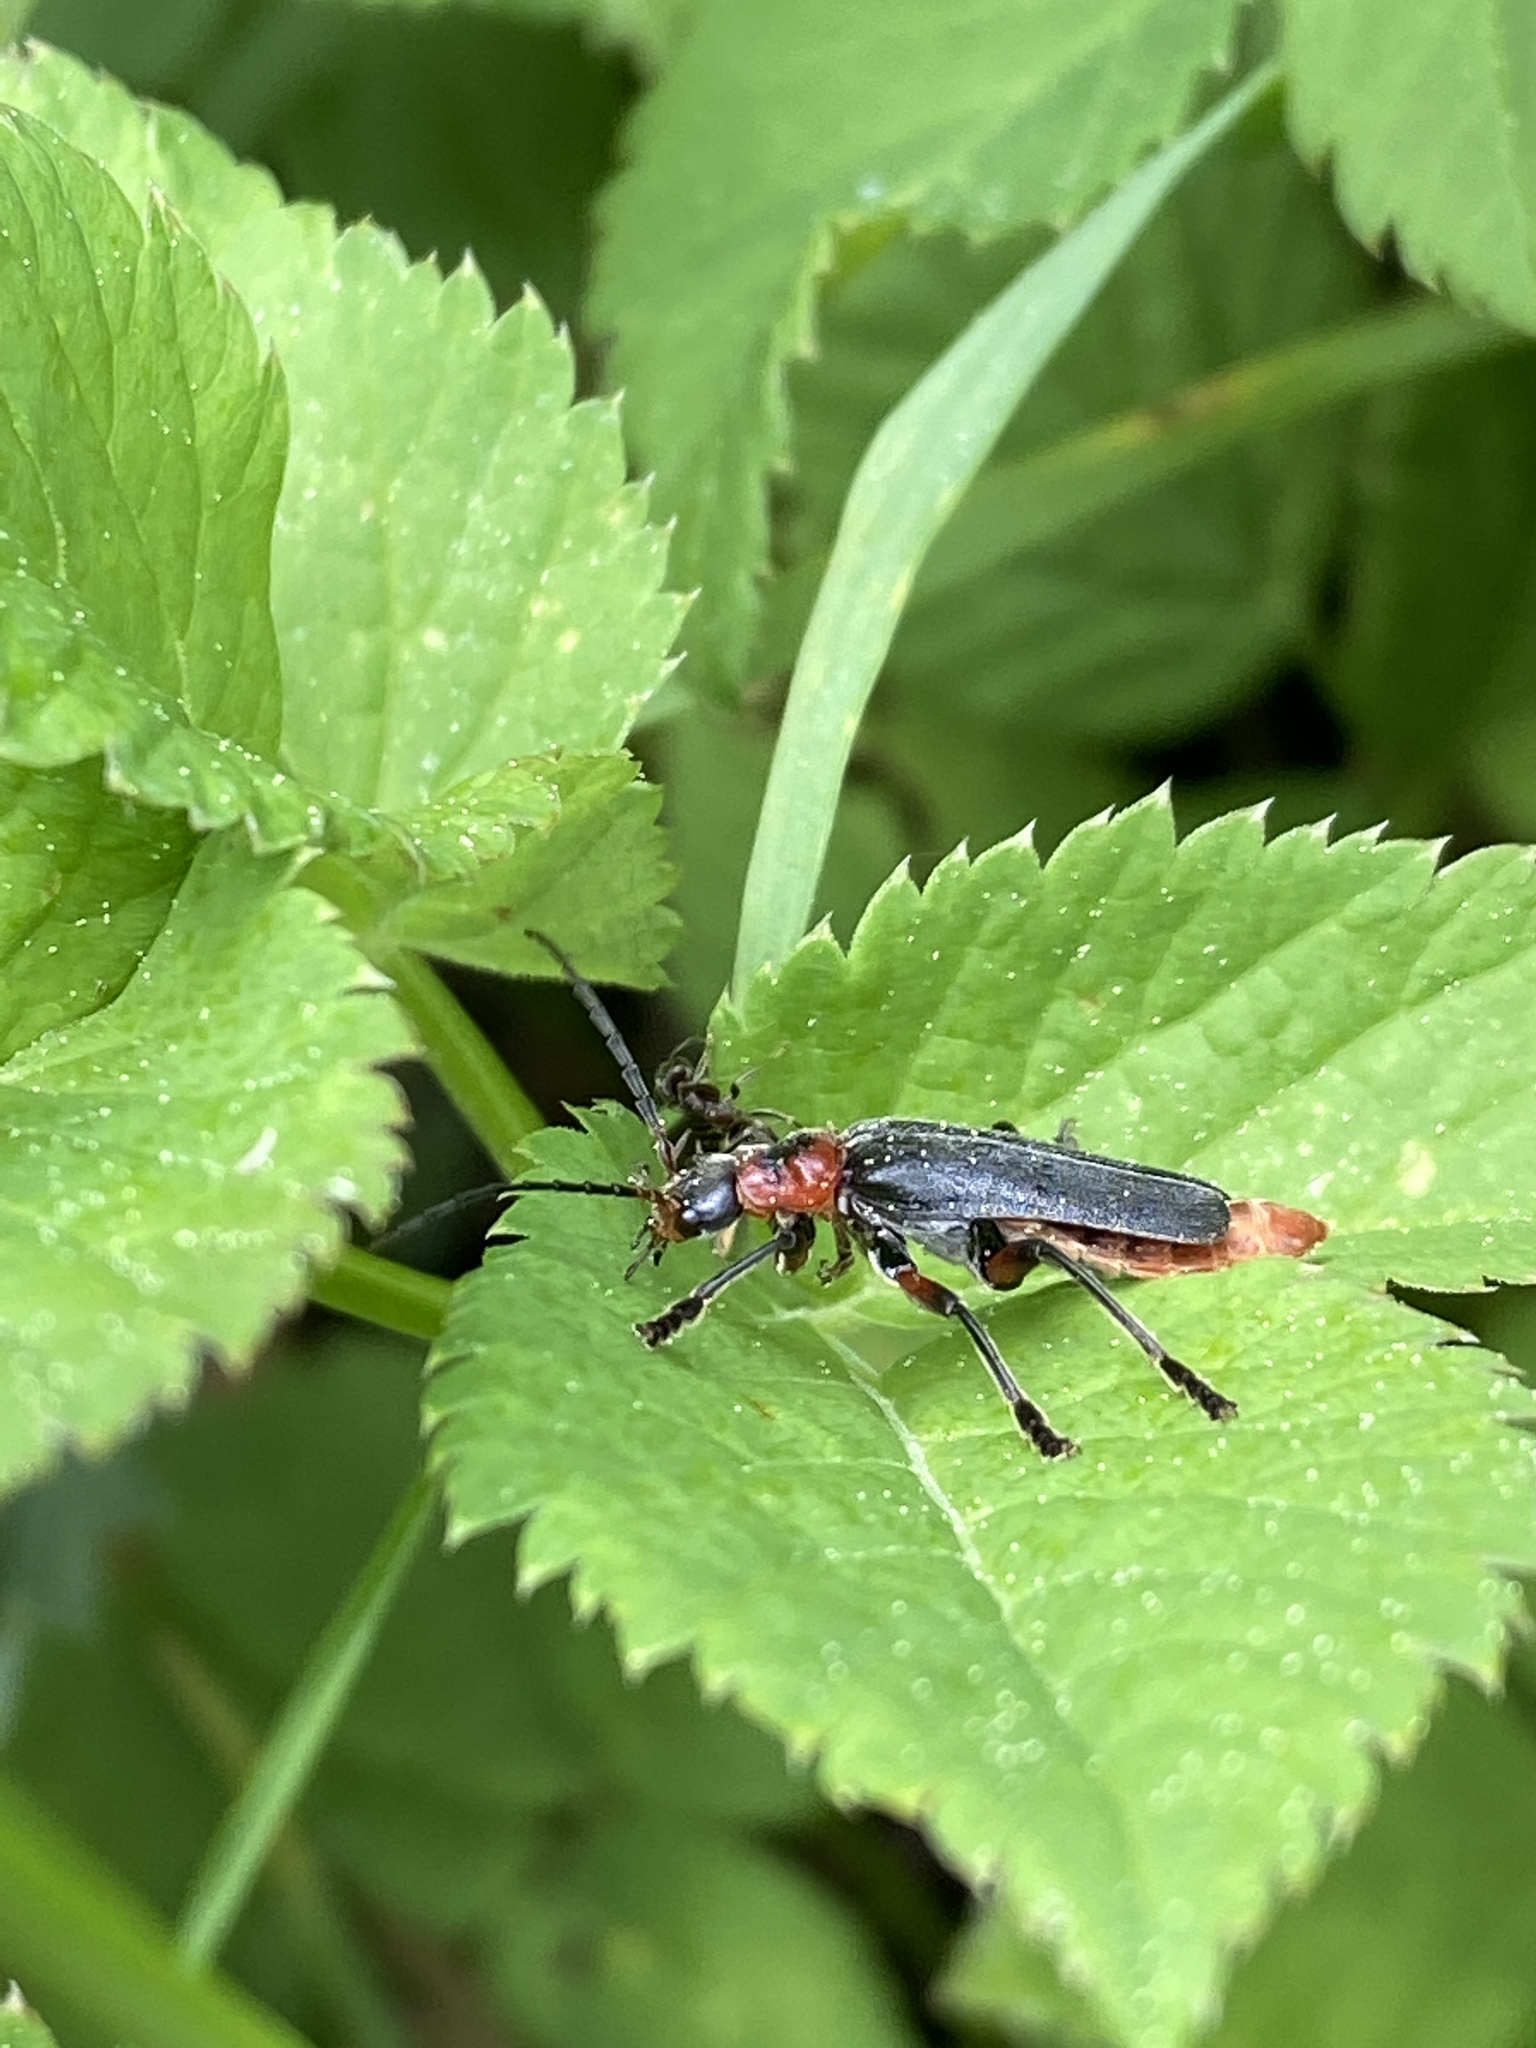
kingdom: Animalia
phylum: Arthropoda
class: Insecta
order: Coleoptera
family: Cantharidae
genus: Cantharis
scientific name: Cantharis rustica
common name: Soldier beetle
